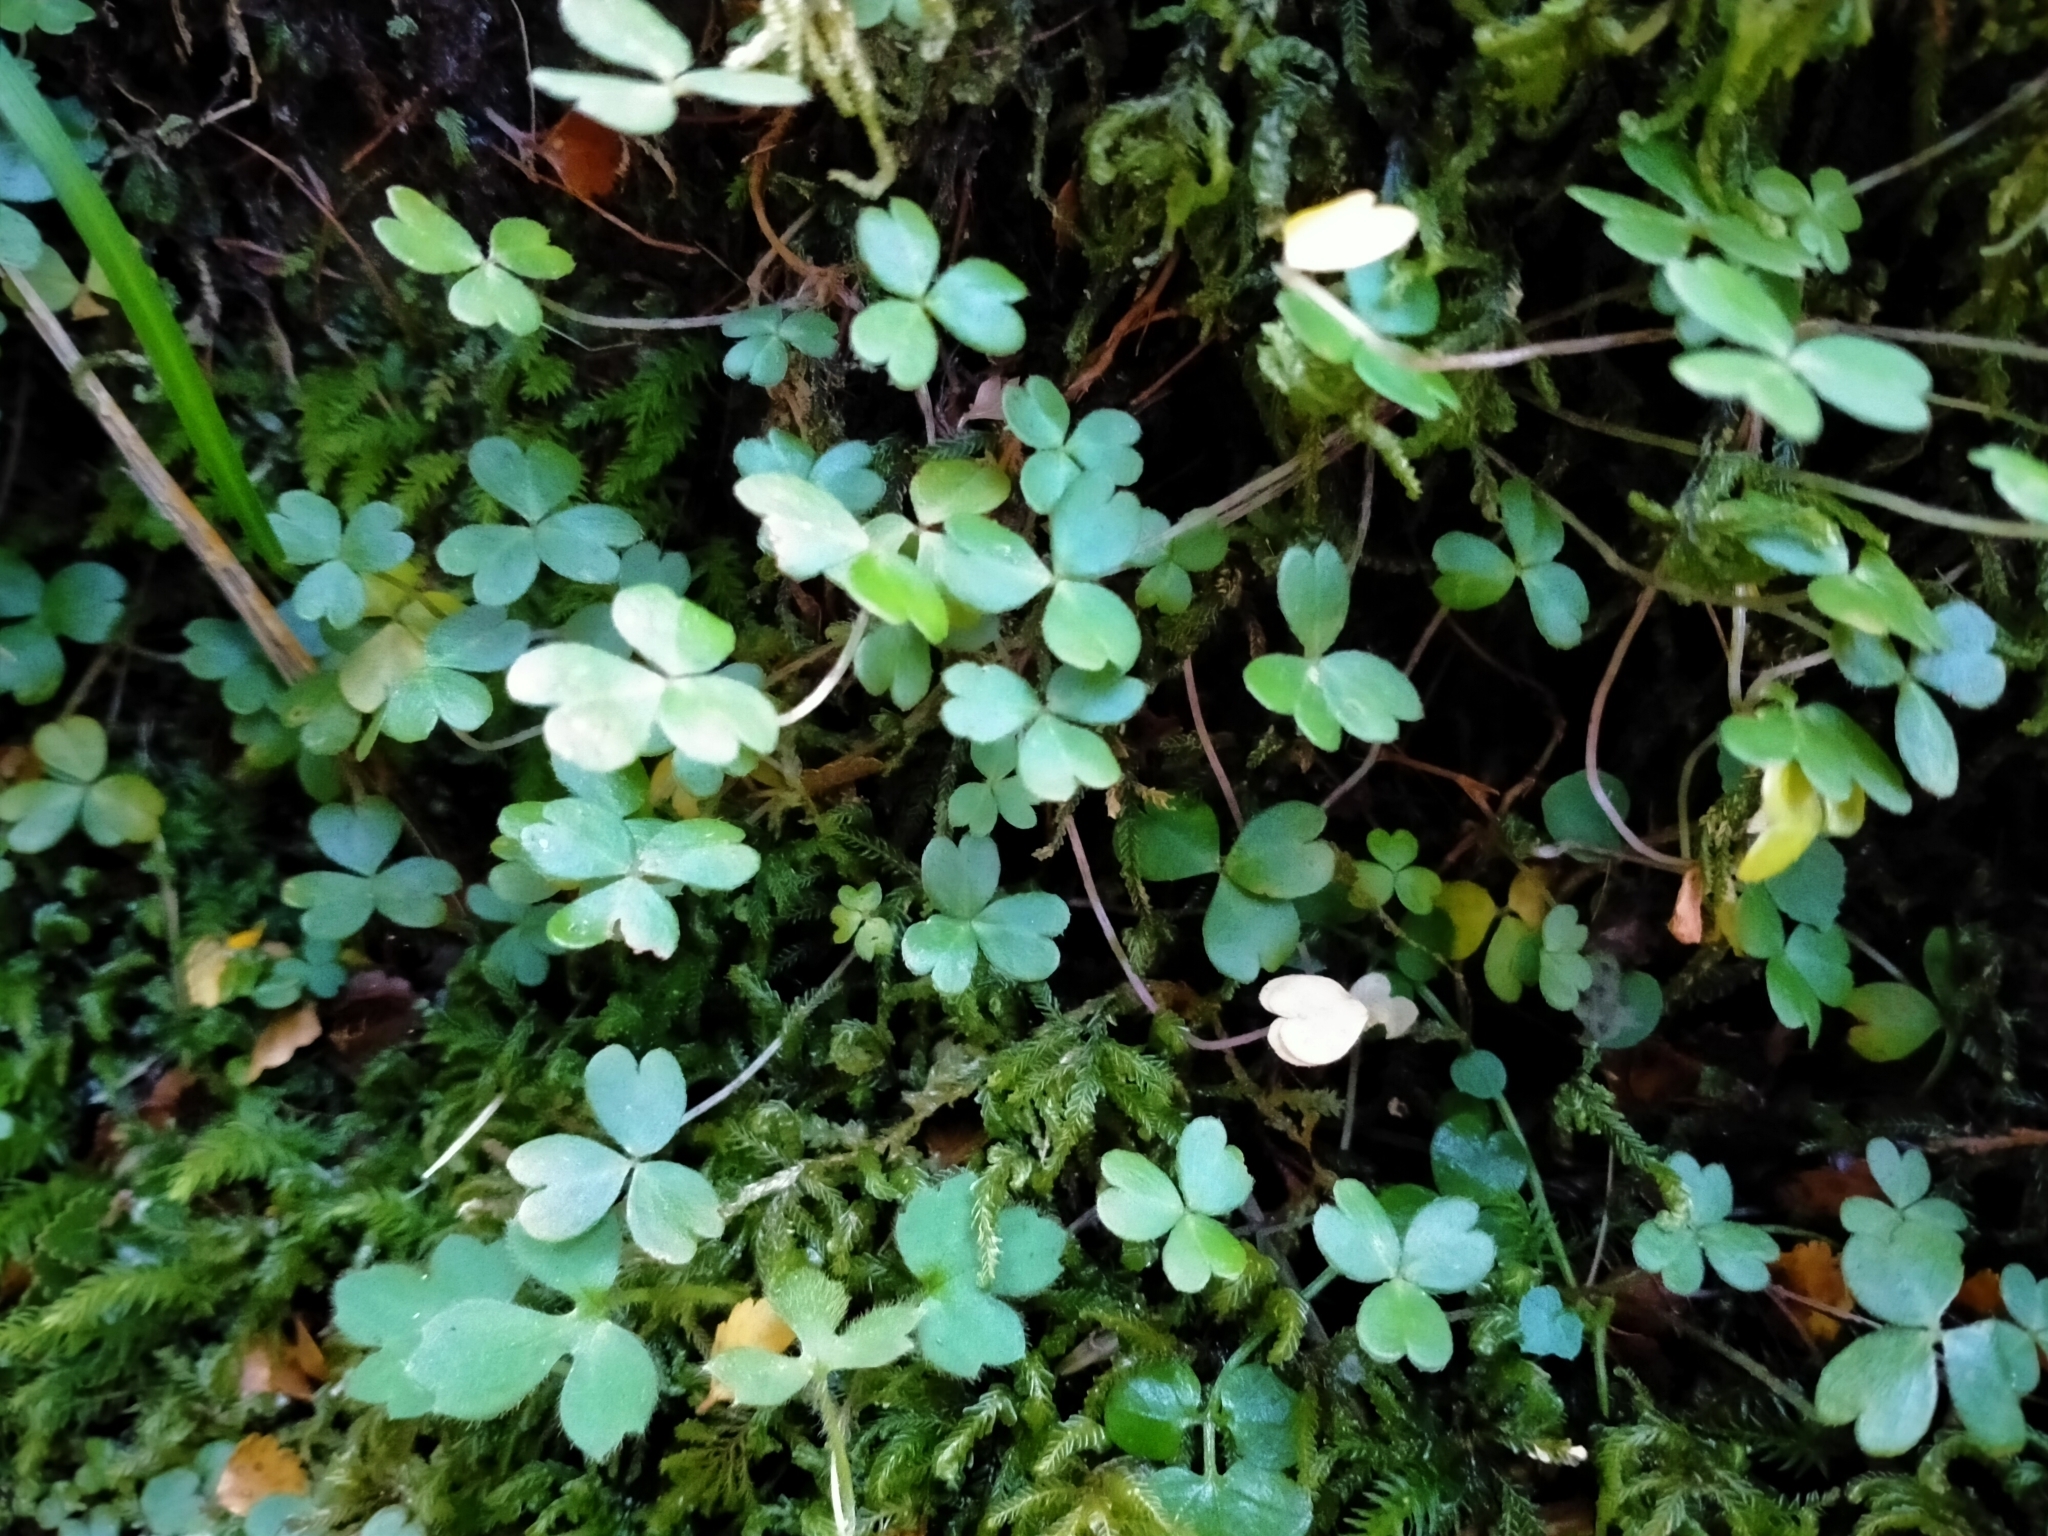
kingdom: Plantae
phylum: Tracheophyta
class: Magnoliopsida
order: Oxalidales
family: Oxalidaceae
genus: Oxalis
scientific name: Oxalis magellanica
